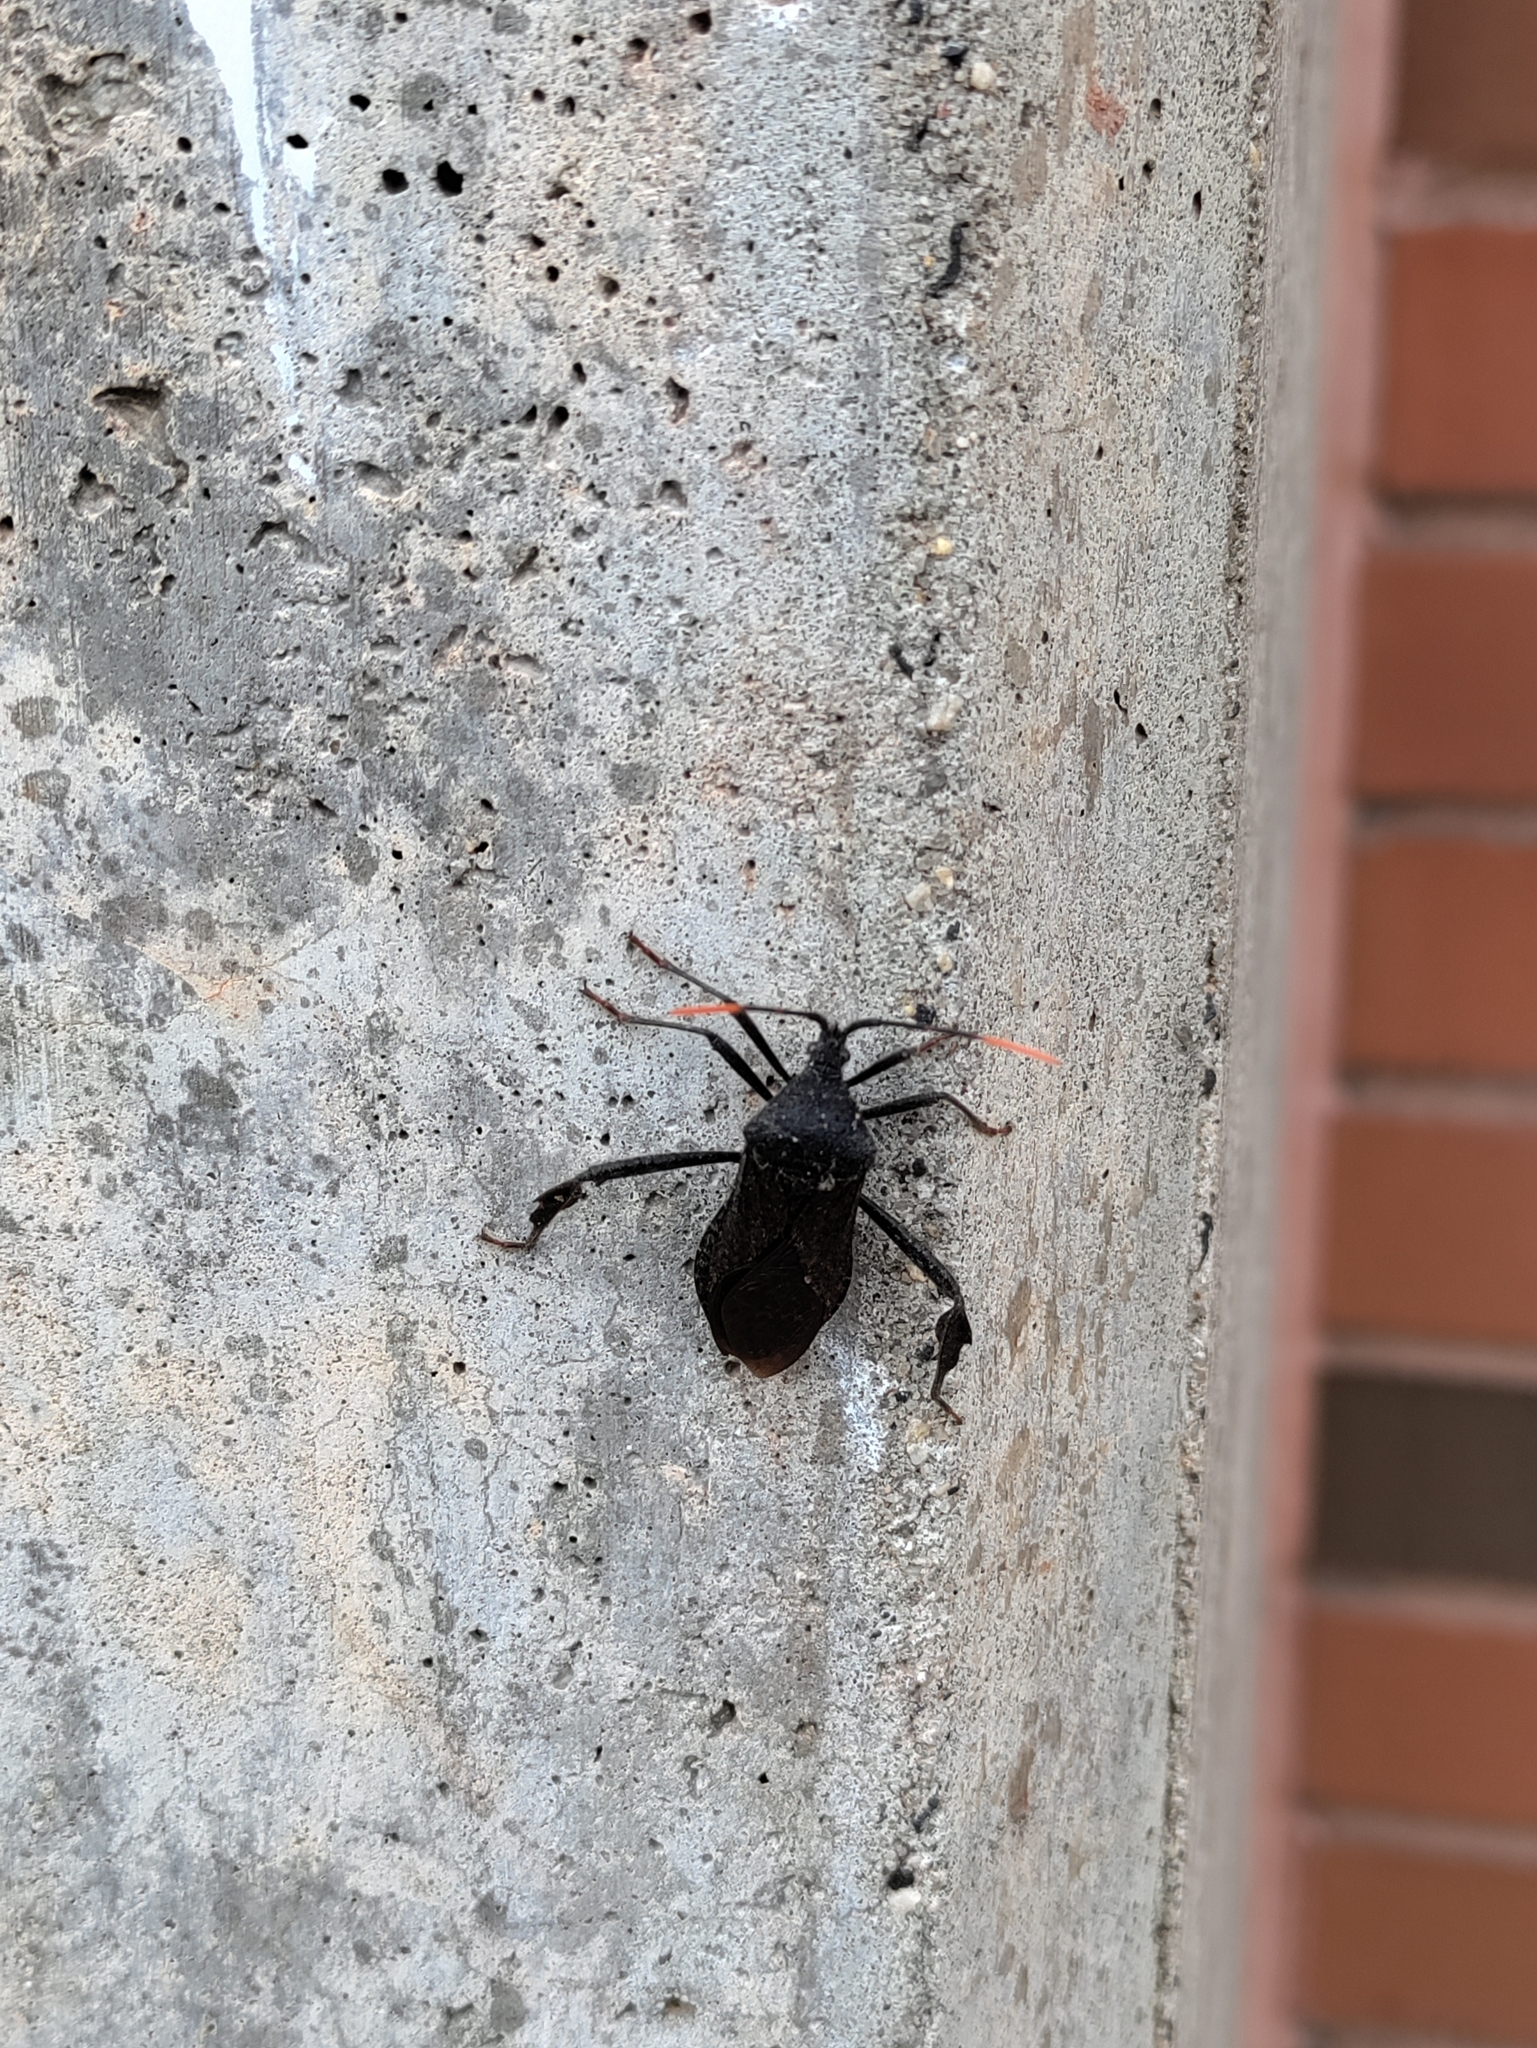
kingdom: Animalia
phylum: Arthropoda
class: Insecta
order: Hemiptera
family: Coreidae
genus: Acanthocephala
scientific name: Acanthocephala terminalis
